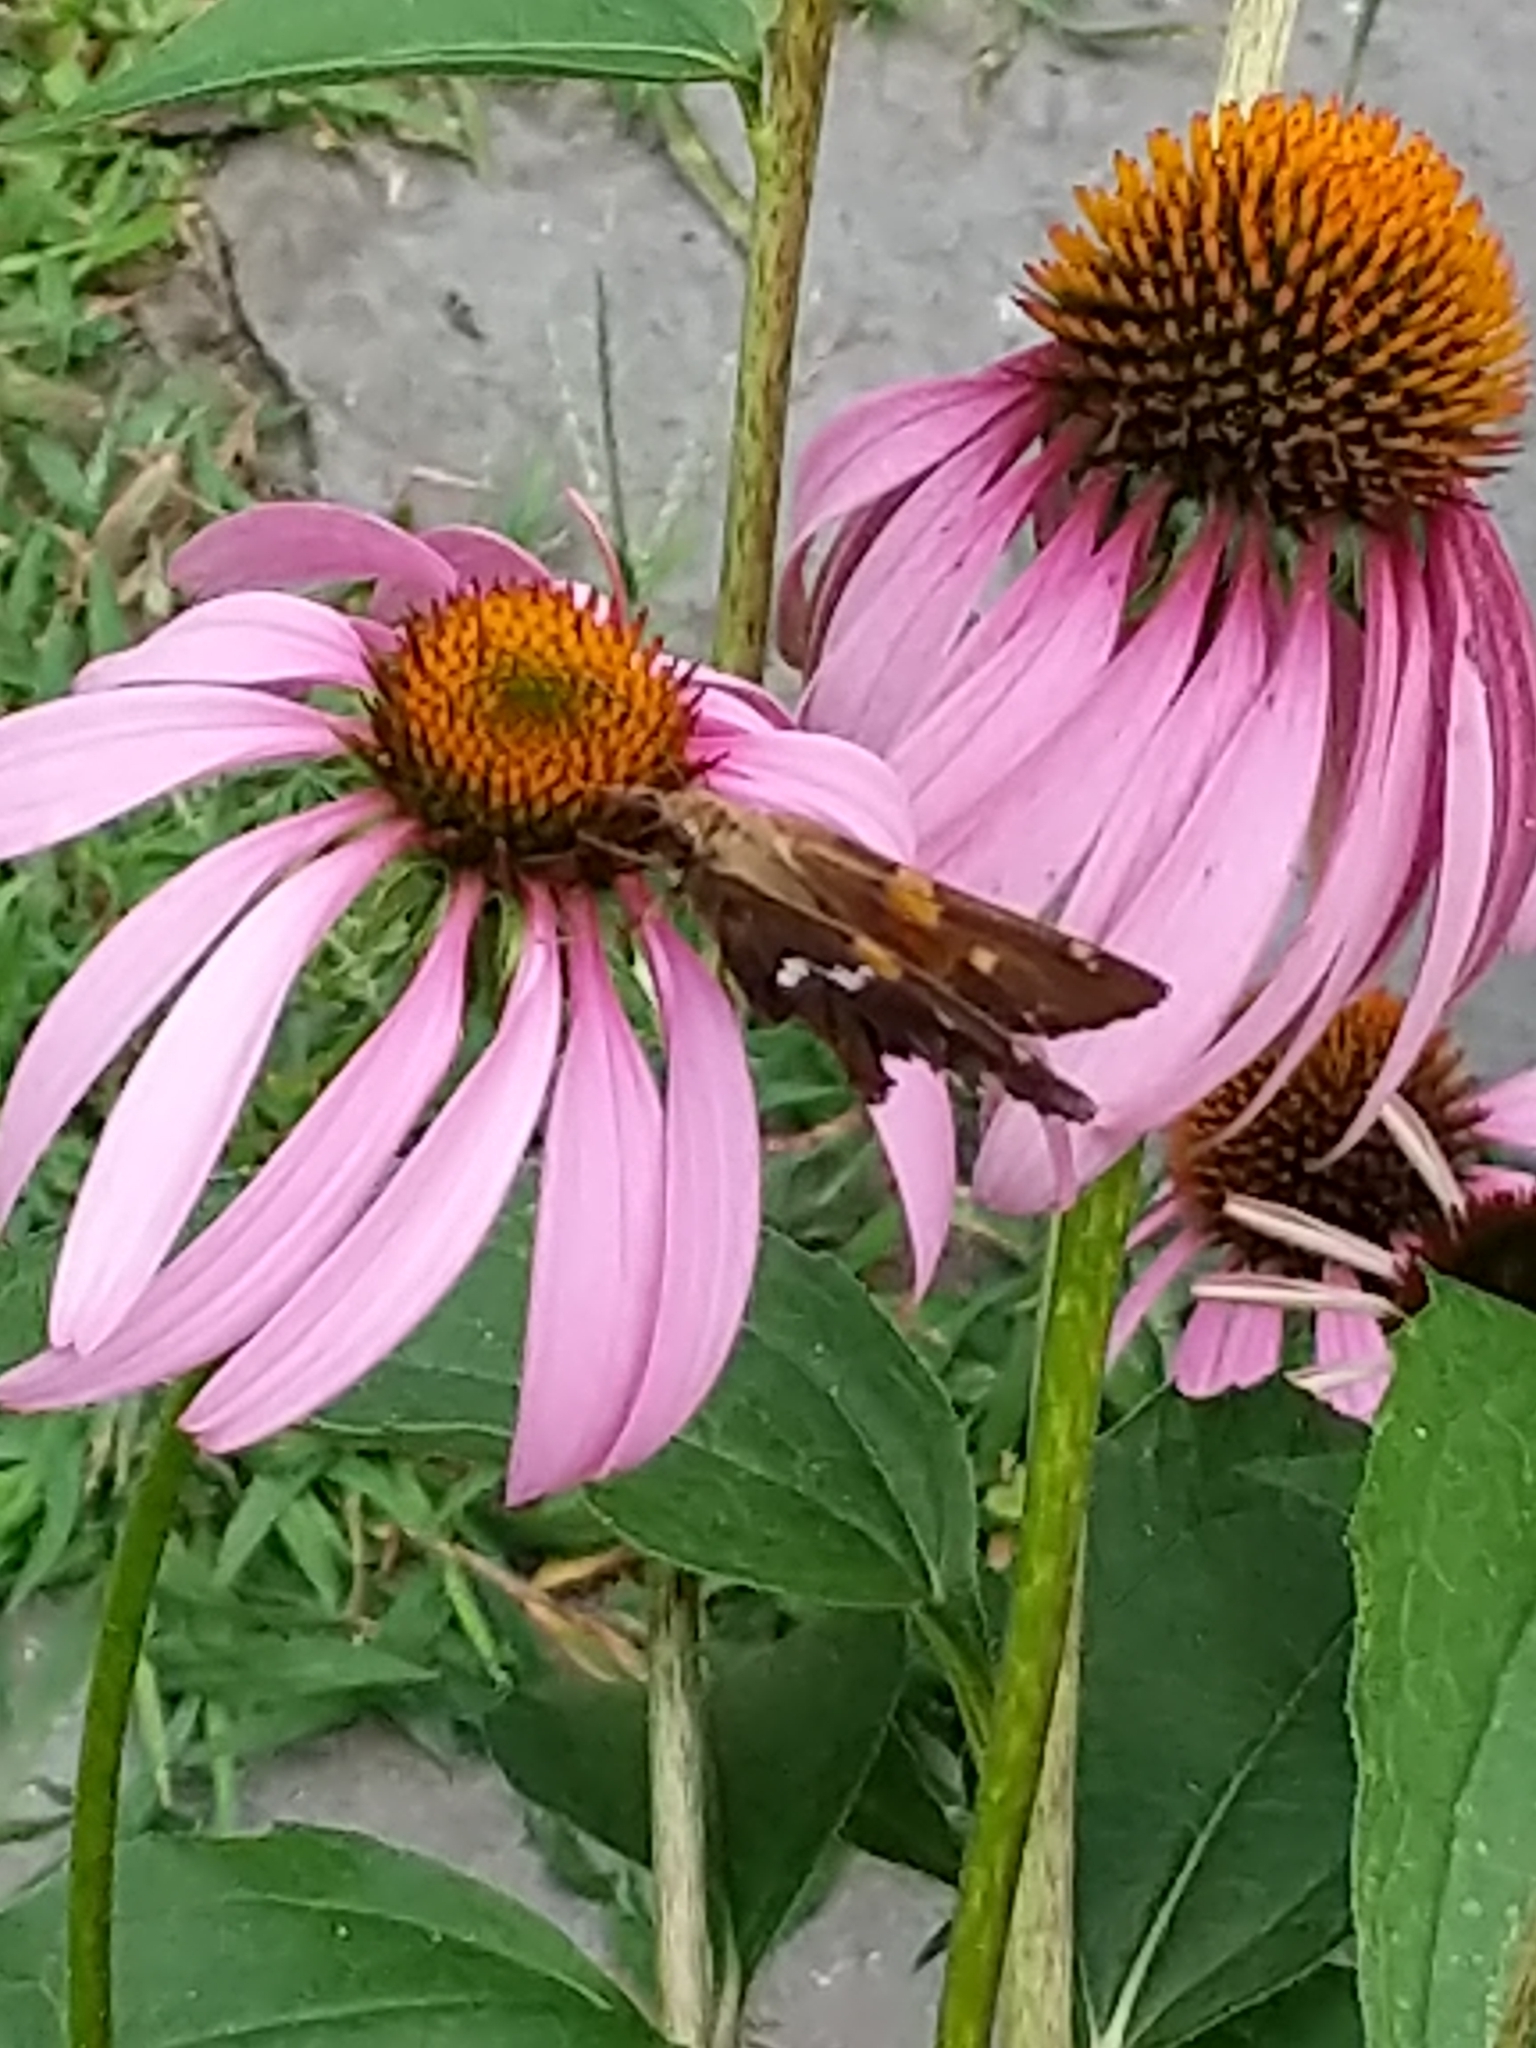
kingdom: Animalia
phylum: Arthropoda
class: Insecta
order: Lepidoptera
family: Hesperiidae
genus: Epargyreus
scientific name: Epargyreus clarus
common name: Silver-spotted skipper
